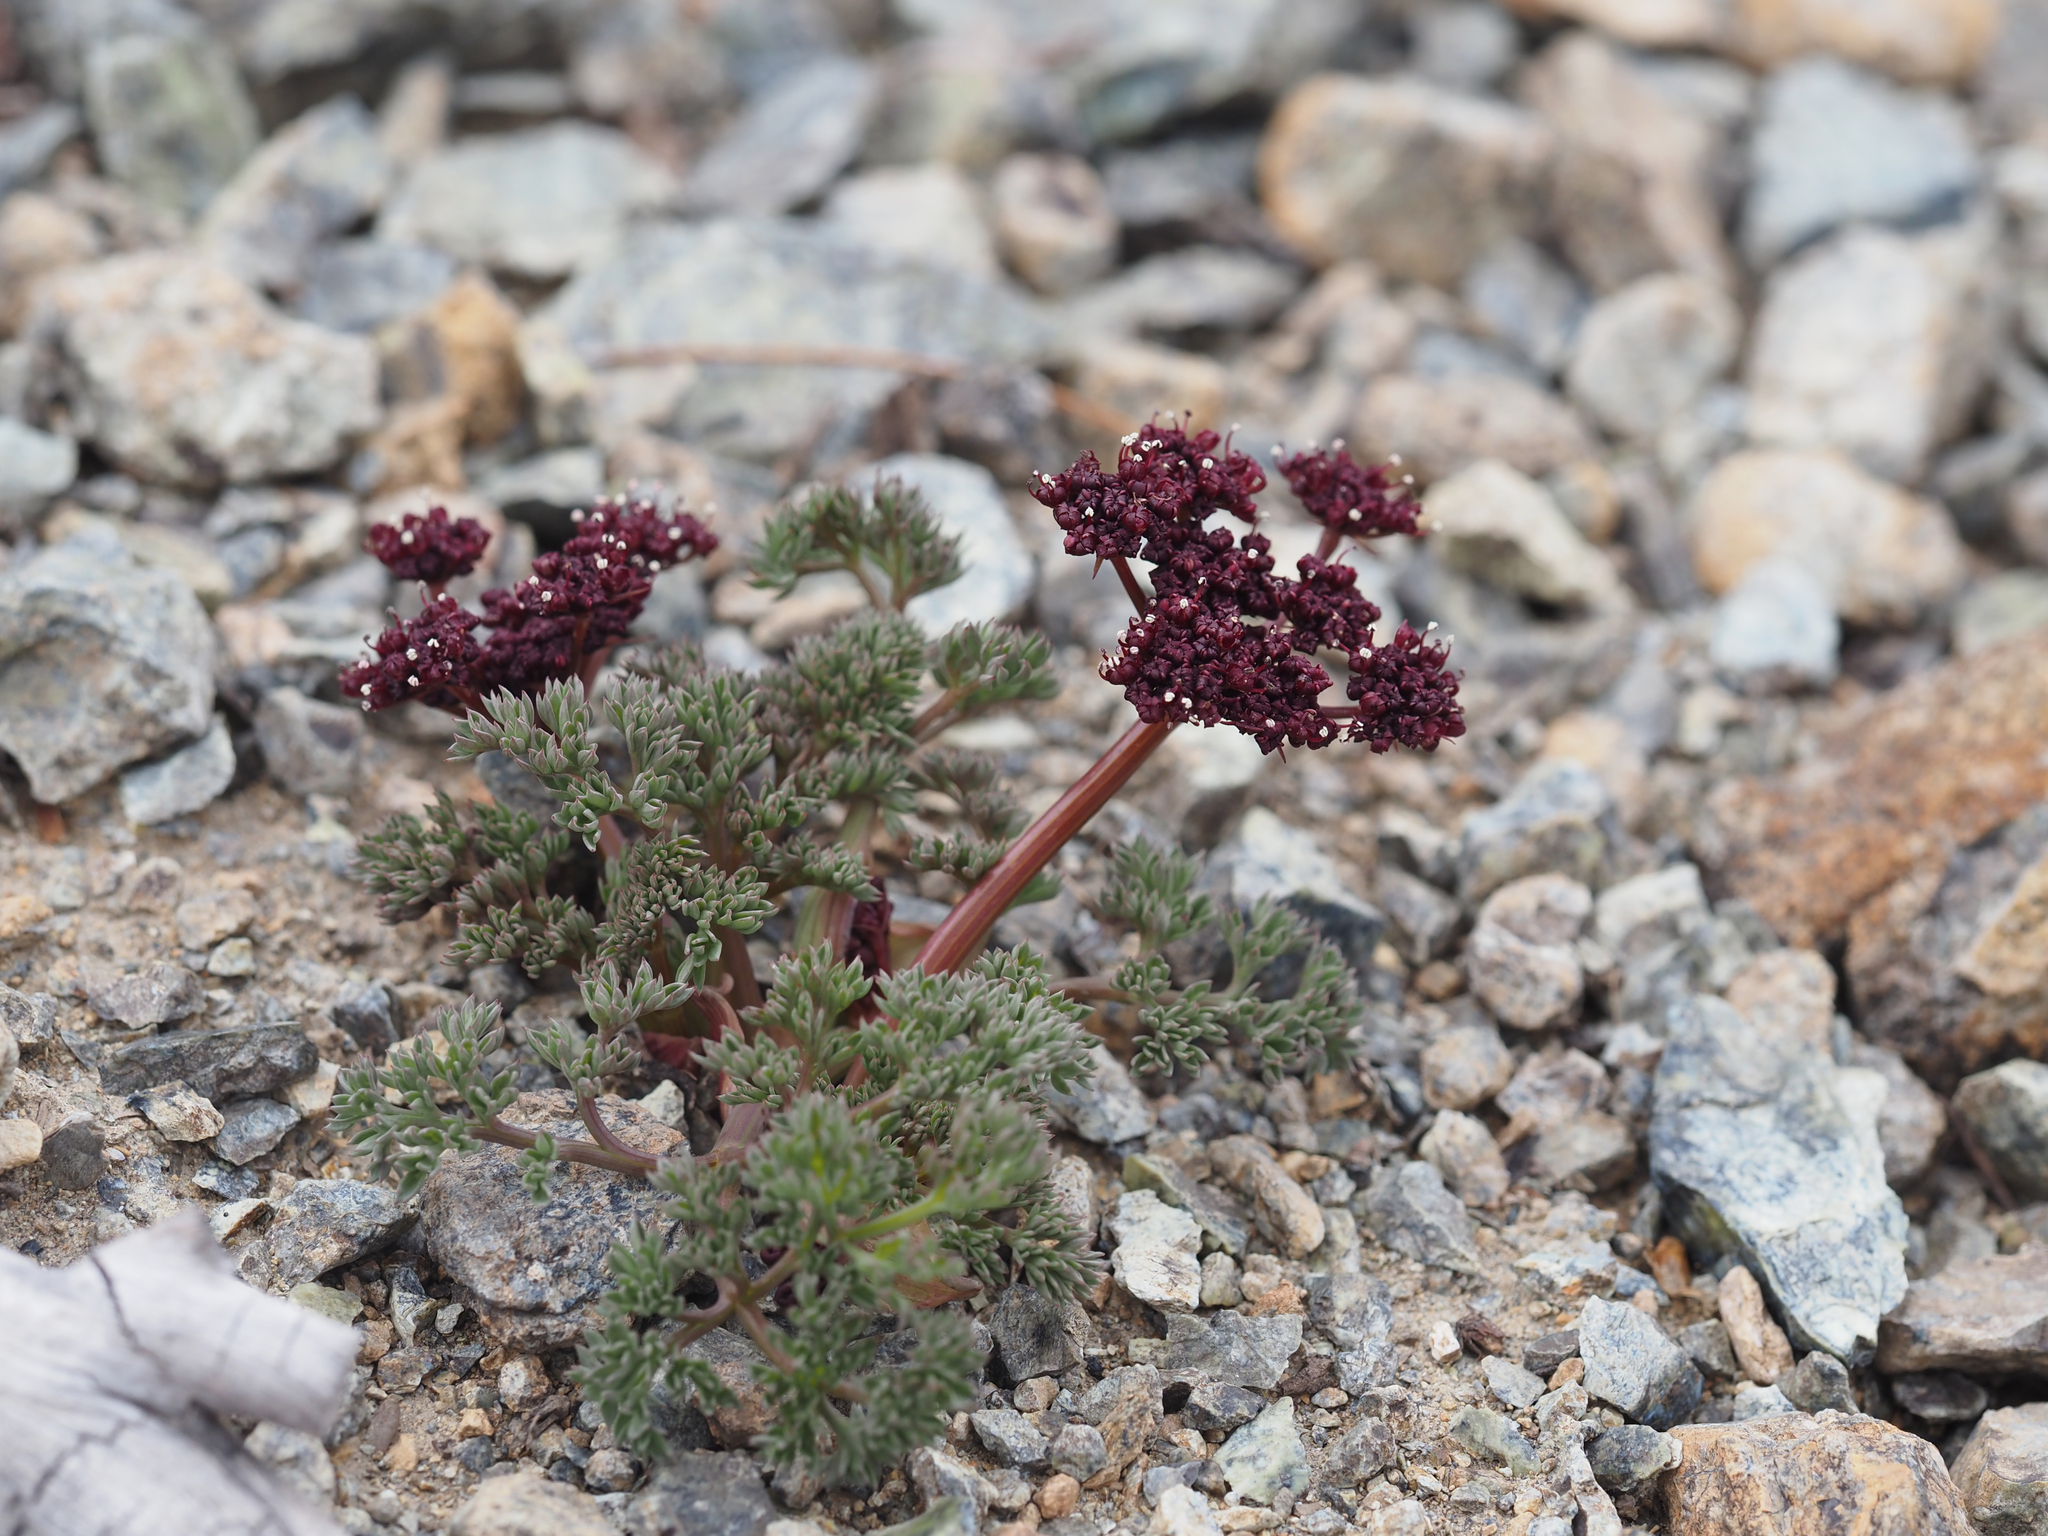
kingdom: Plantae
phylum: Tracheophyta
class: Magnoliopsida
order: Apiales
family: Apiaceae
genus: Lomatium
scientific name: Lomatium cuspidatum
